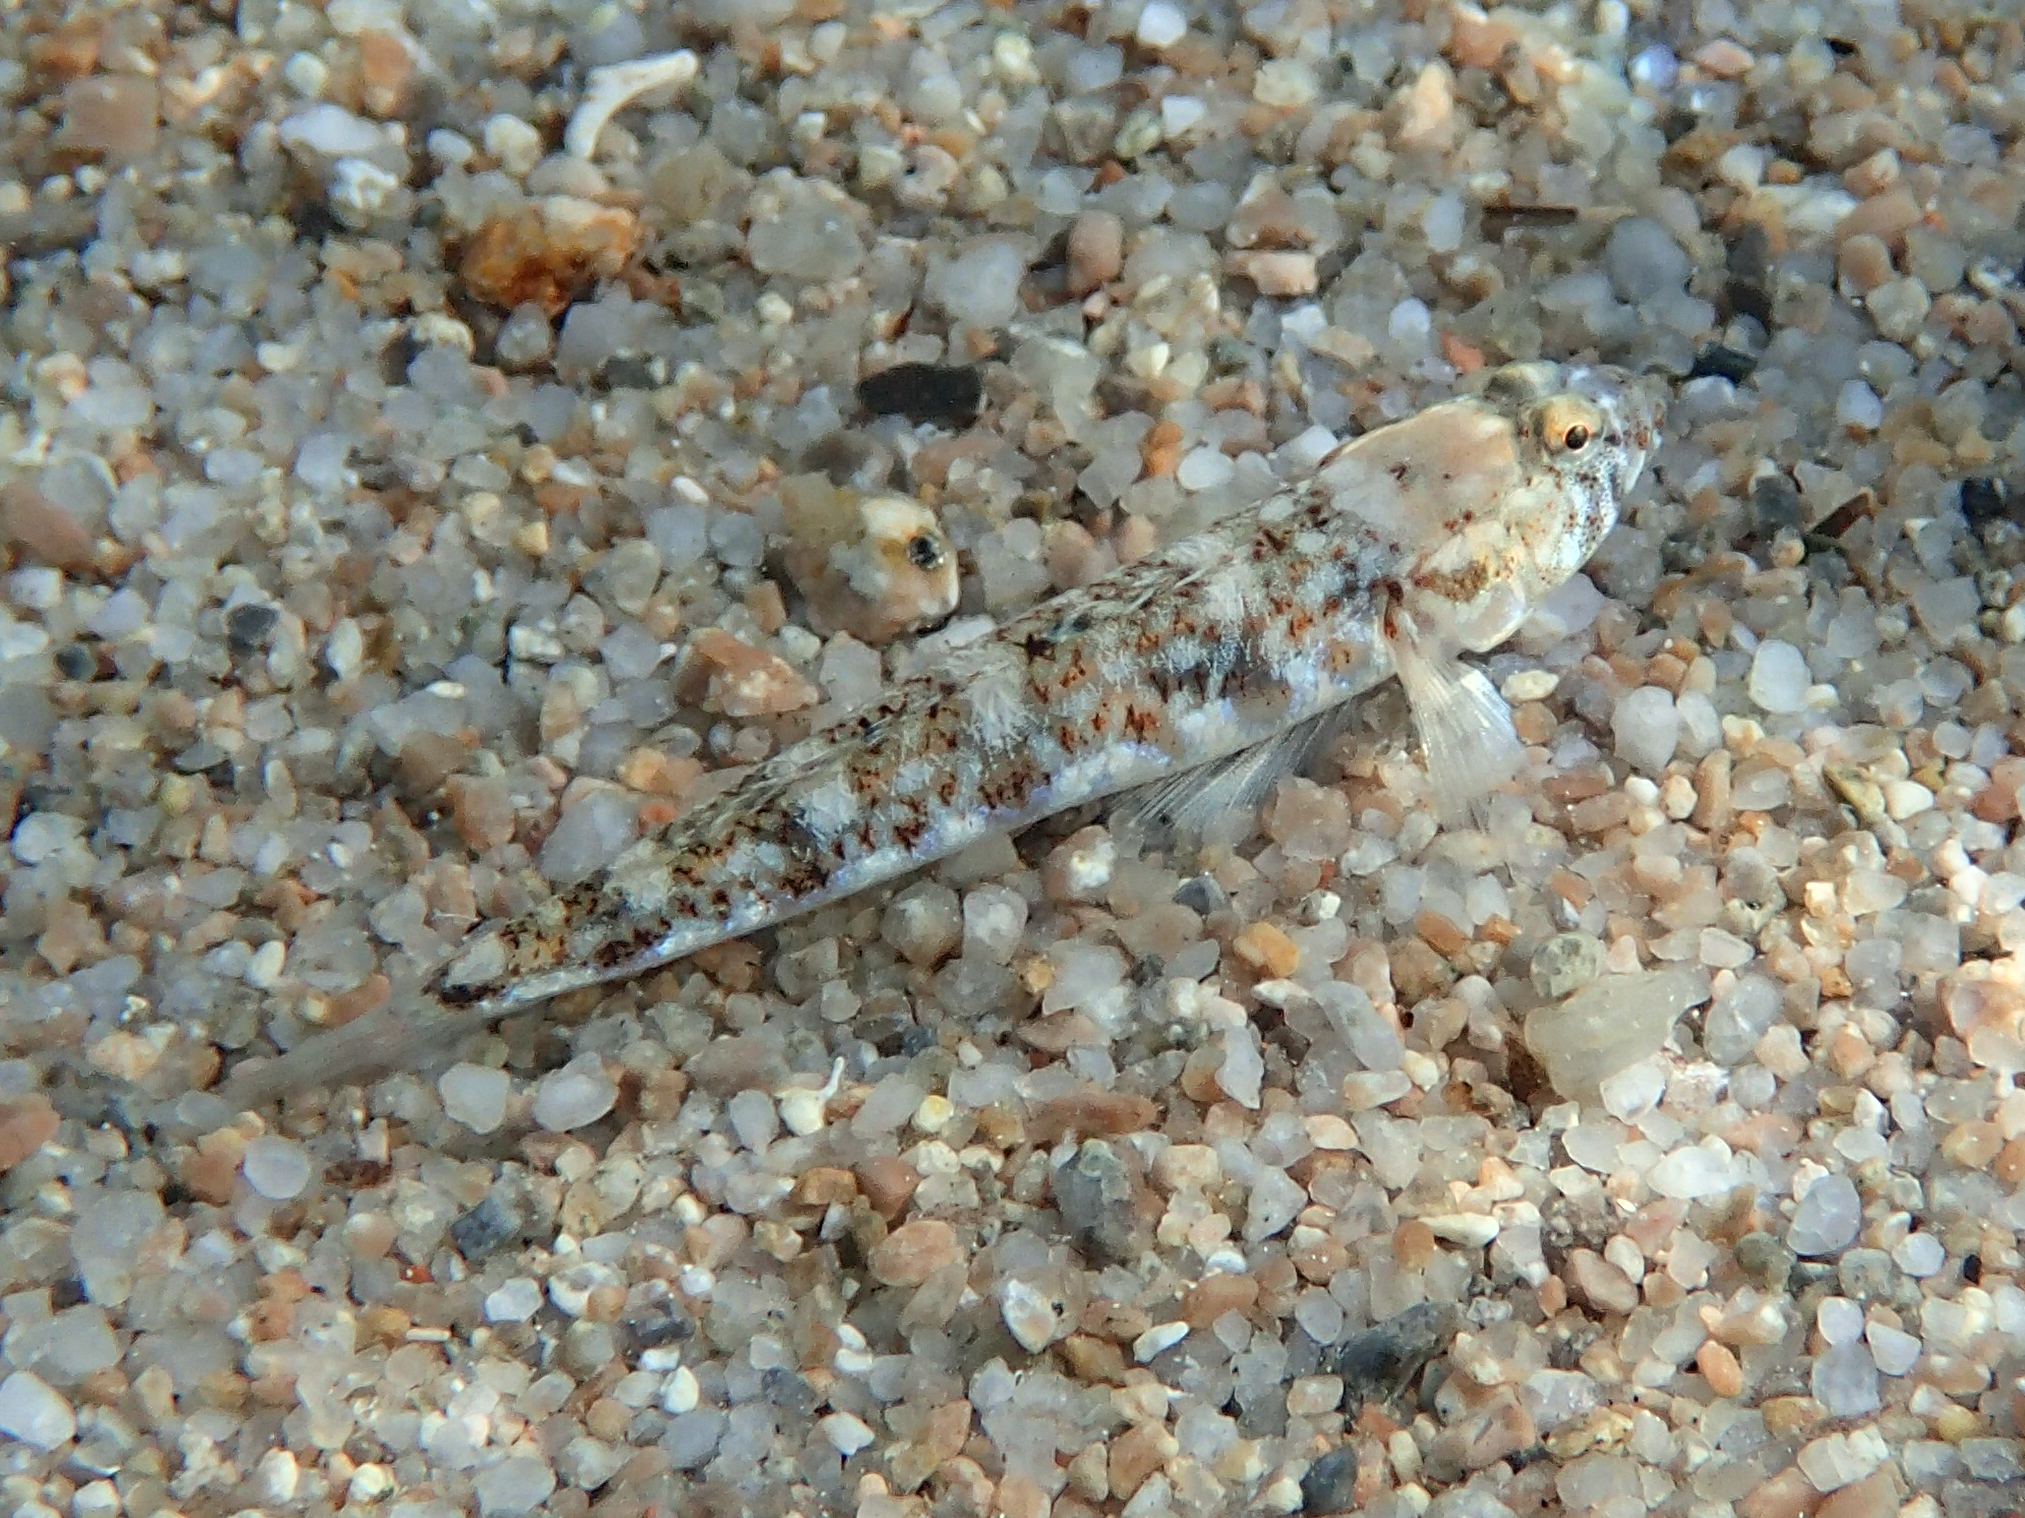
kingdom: Animalia
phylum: Chordata
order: Perciformes
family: Gobiidae
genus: Pomatoschistus
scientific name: Pomatoschistus marmoratus
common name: Marbled goby
